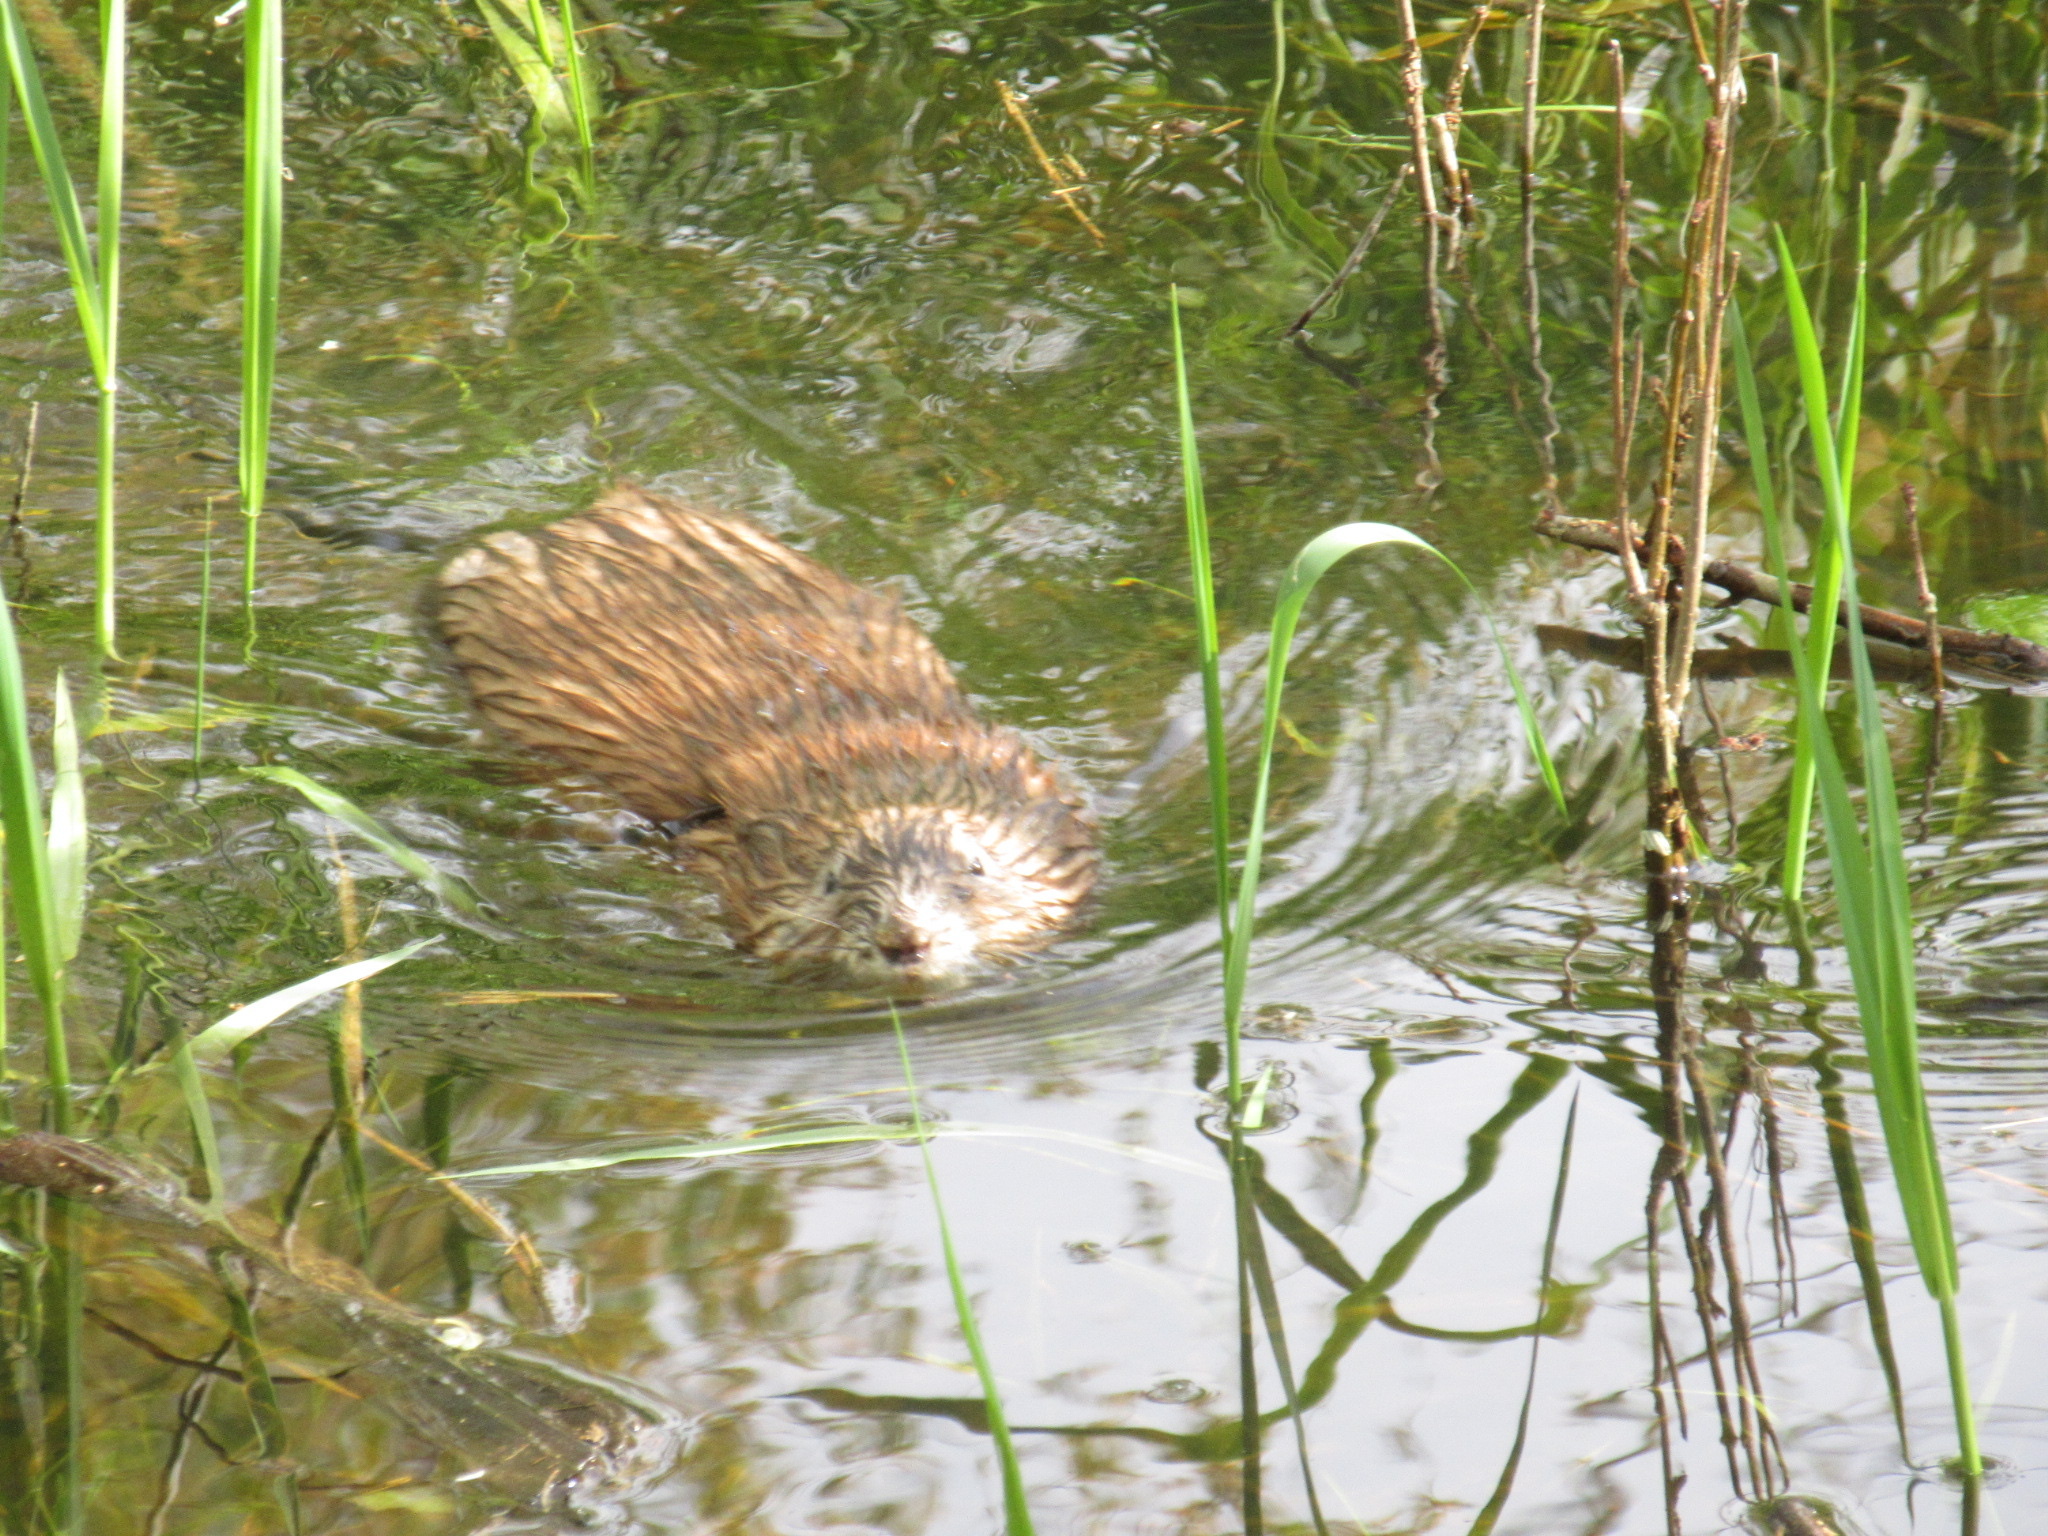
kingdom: Animalia
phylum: Chordata
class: Mammalia
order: Rodentia
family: Cricetidae
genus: Ondatra
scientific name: Ondatra zibethicus
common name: Muskrat
